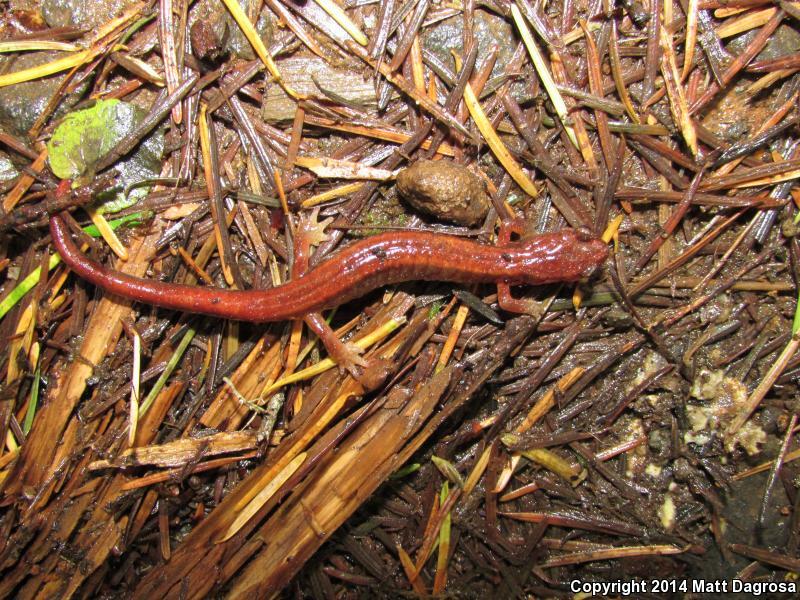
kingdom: Animalia
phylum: Chordata
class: Amphibia
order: Caudata
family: Plethodontidae
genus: Plethodon
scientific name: Plethodon vehiculum
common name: Western red-backed salamander
